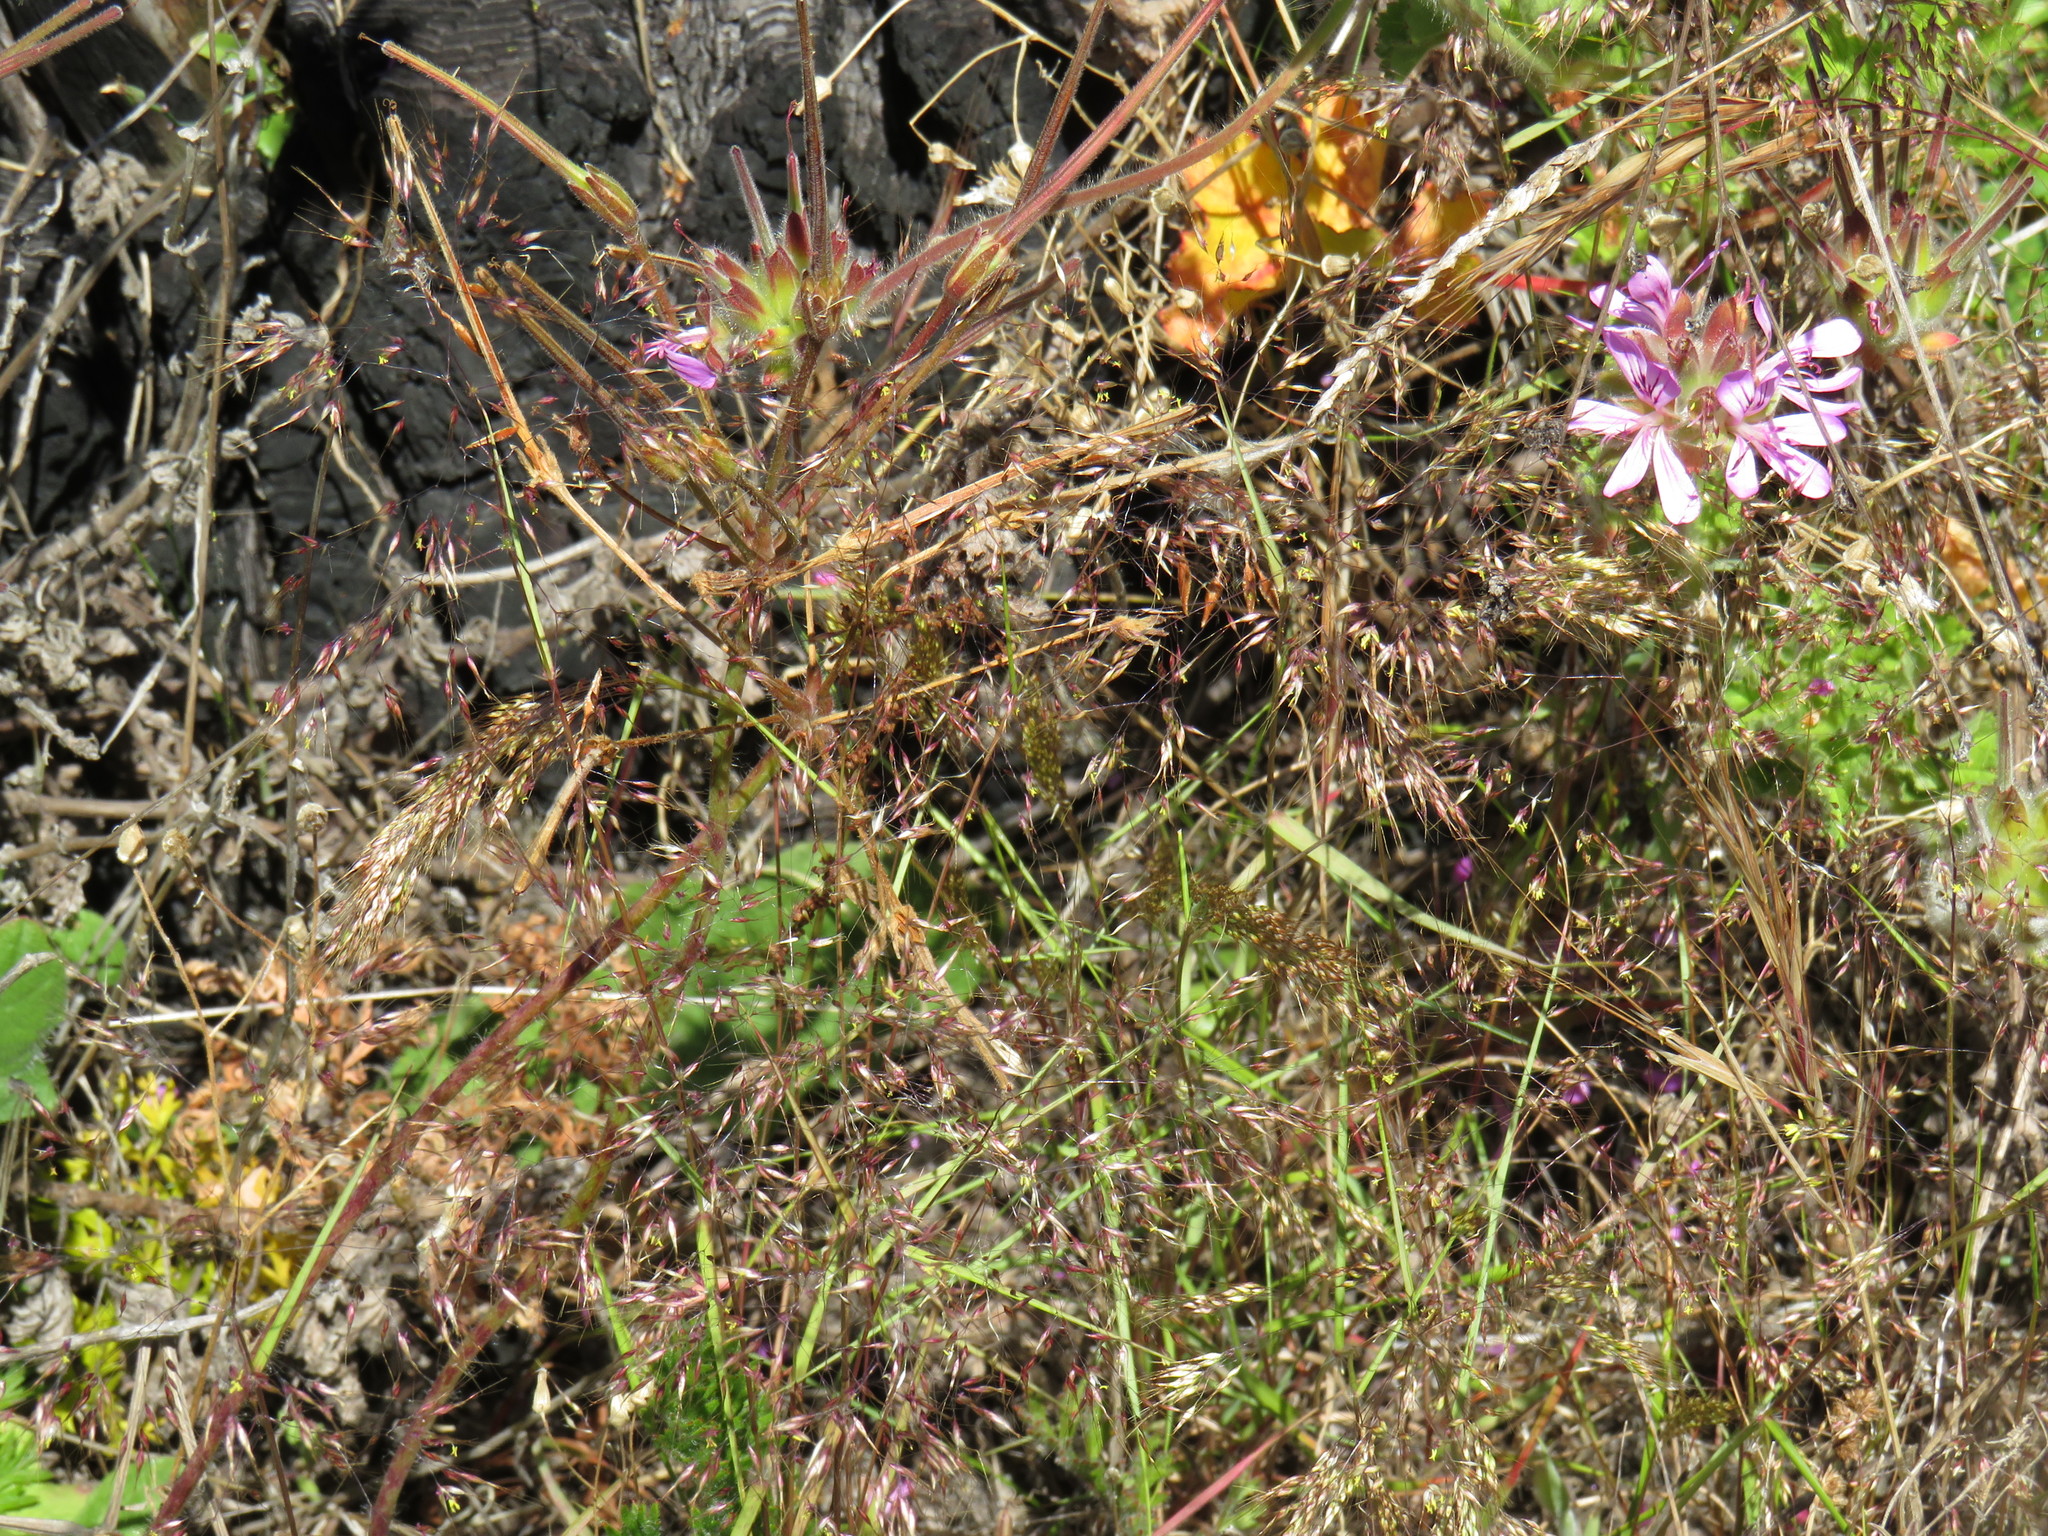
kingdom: Plantae
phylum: Tracheophyta
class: Liliopsida
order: Poales
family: Poaceae
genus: Pentameris
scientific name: Pentameris airoides
